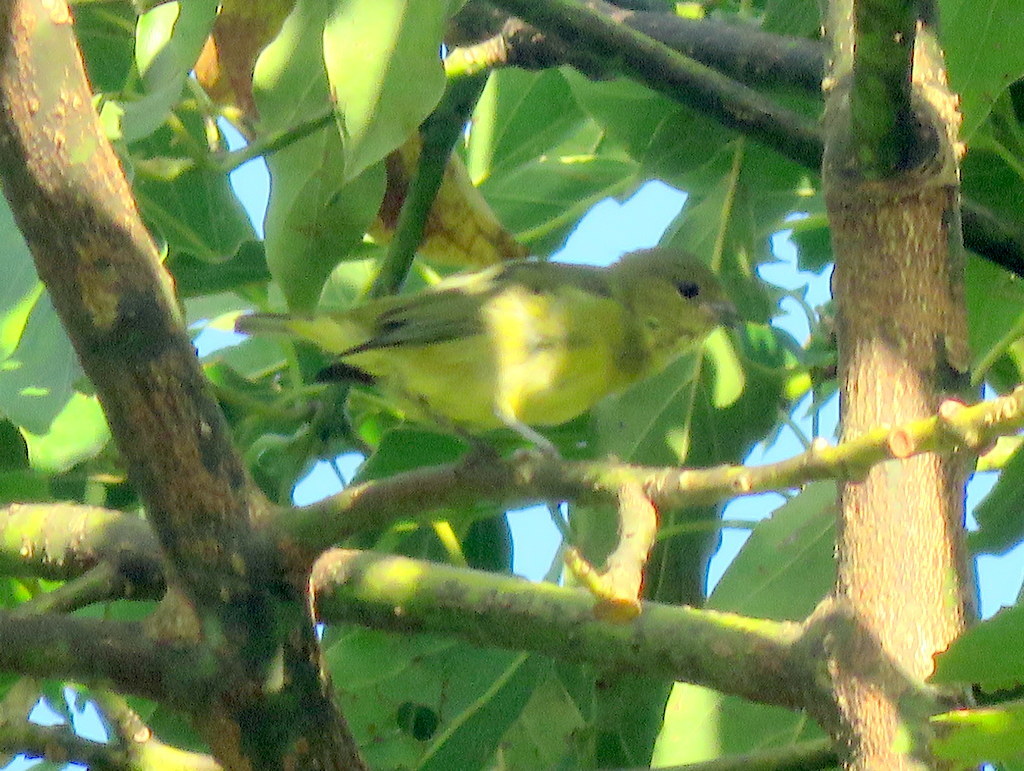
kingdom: Animalia
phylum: Chordata
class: Aves
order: Passeriformes
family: Fringillidae
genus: Euphonia
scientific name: Euphonia cyanocephala
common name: Golden-rumped euphonia
